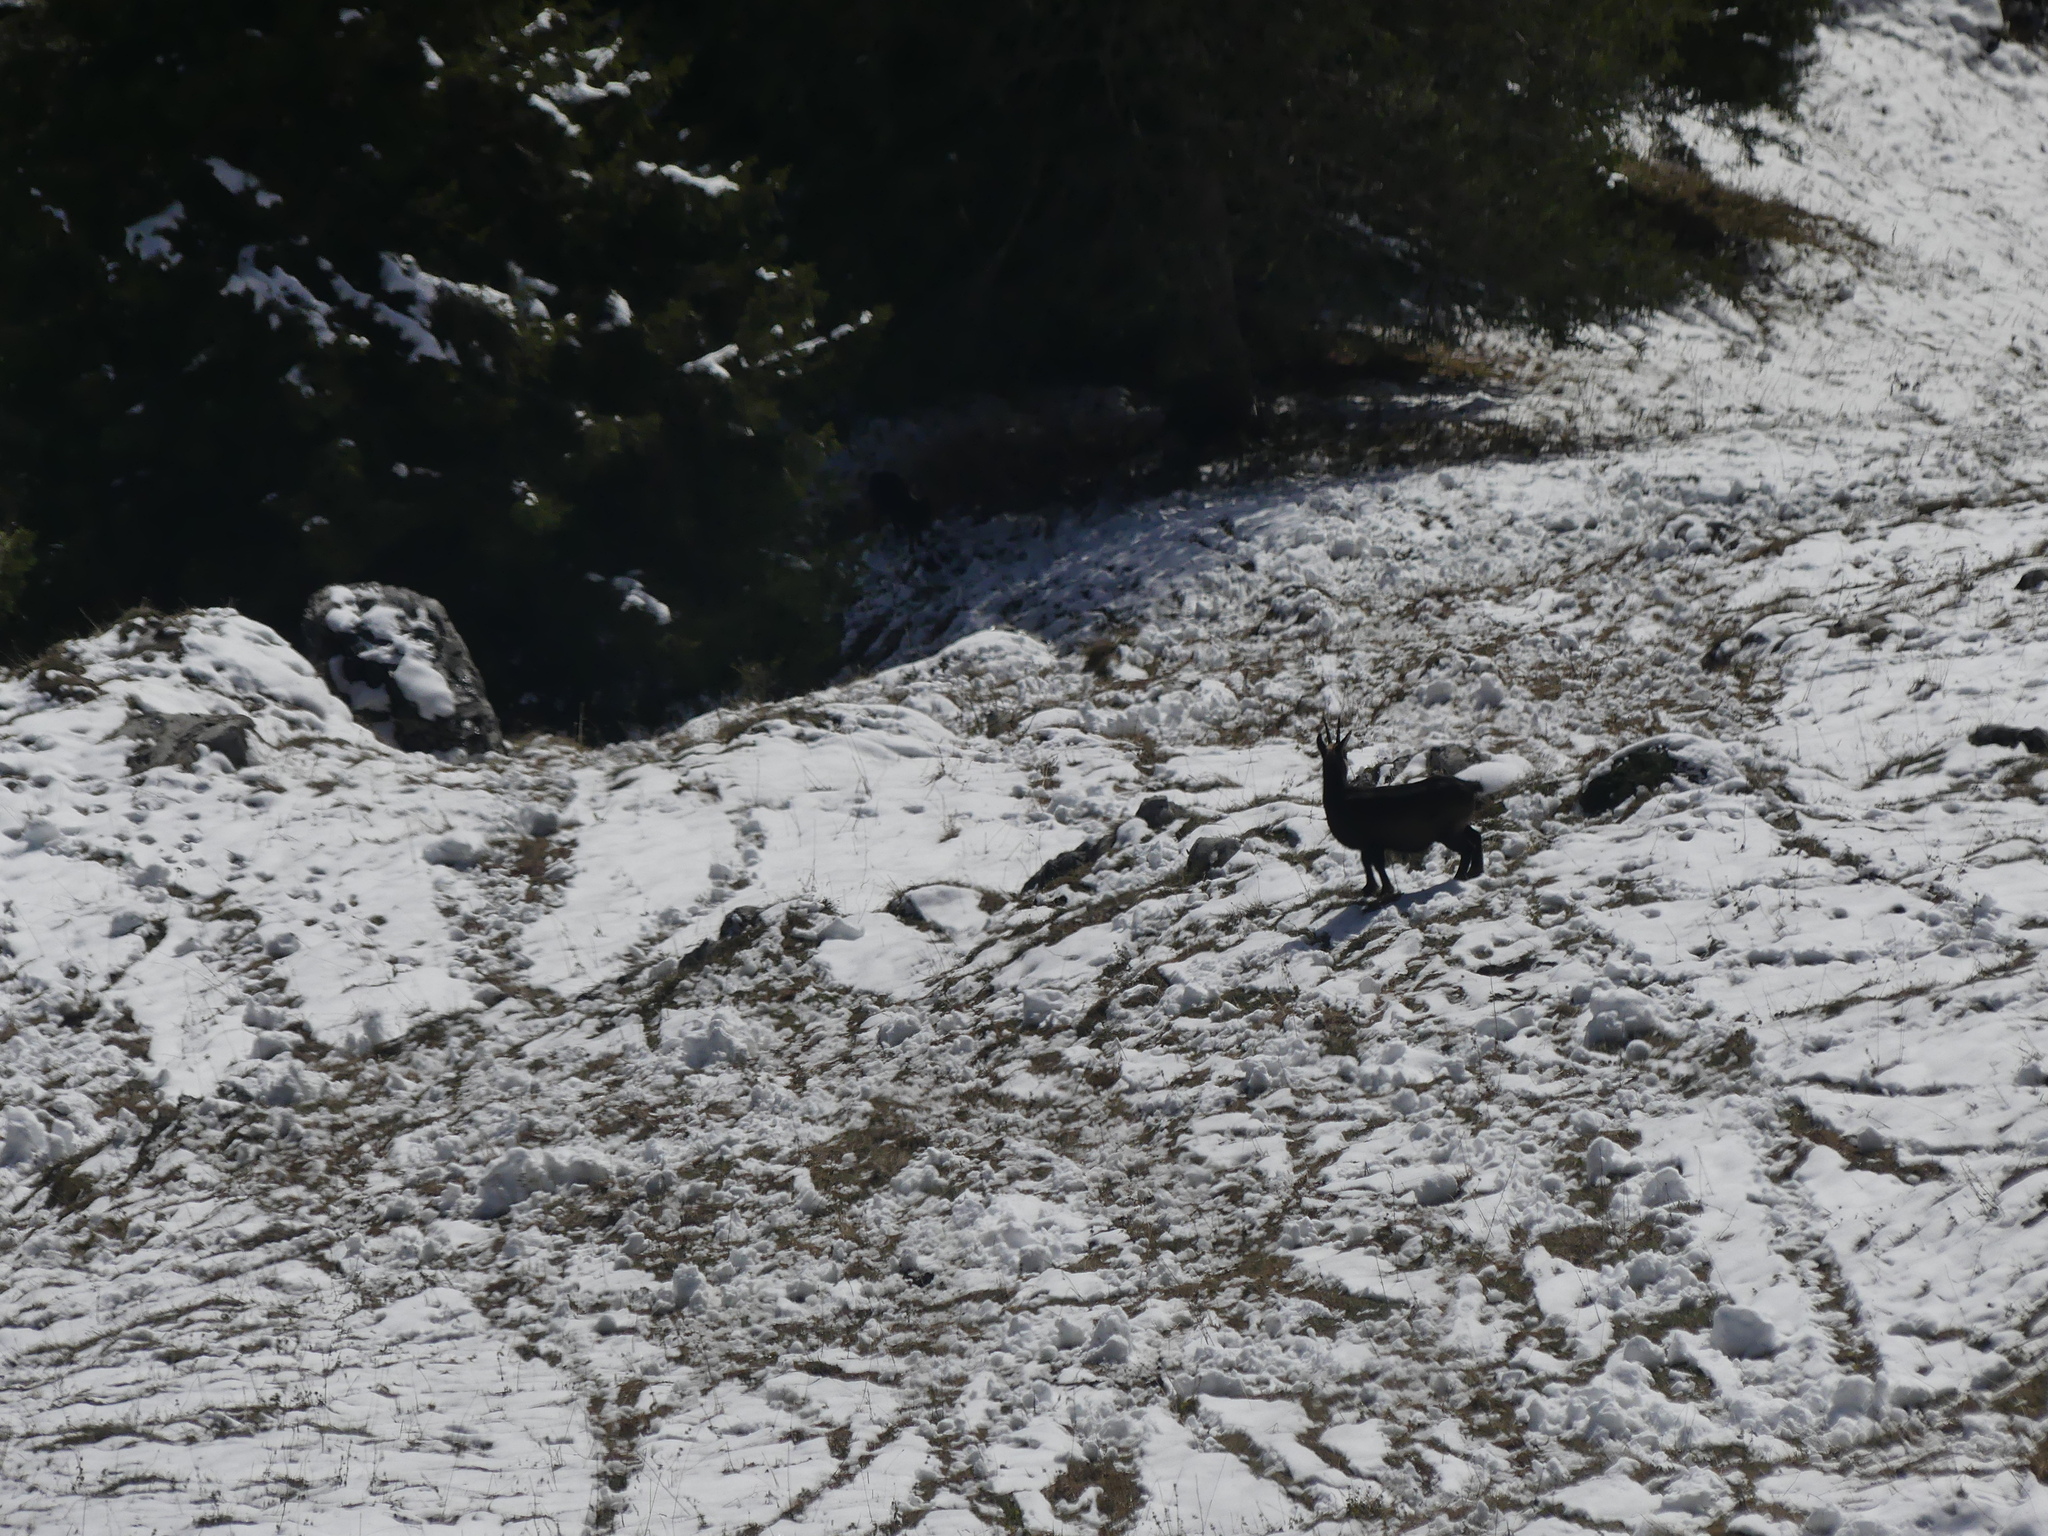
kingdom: Animalia
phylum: Chordata
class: Mammalia
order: Artiodactyla
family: Bovidae
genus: Rupicapra
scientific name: Rupicapra rupicapra
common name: Chamois
